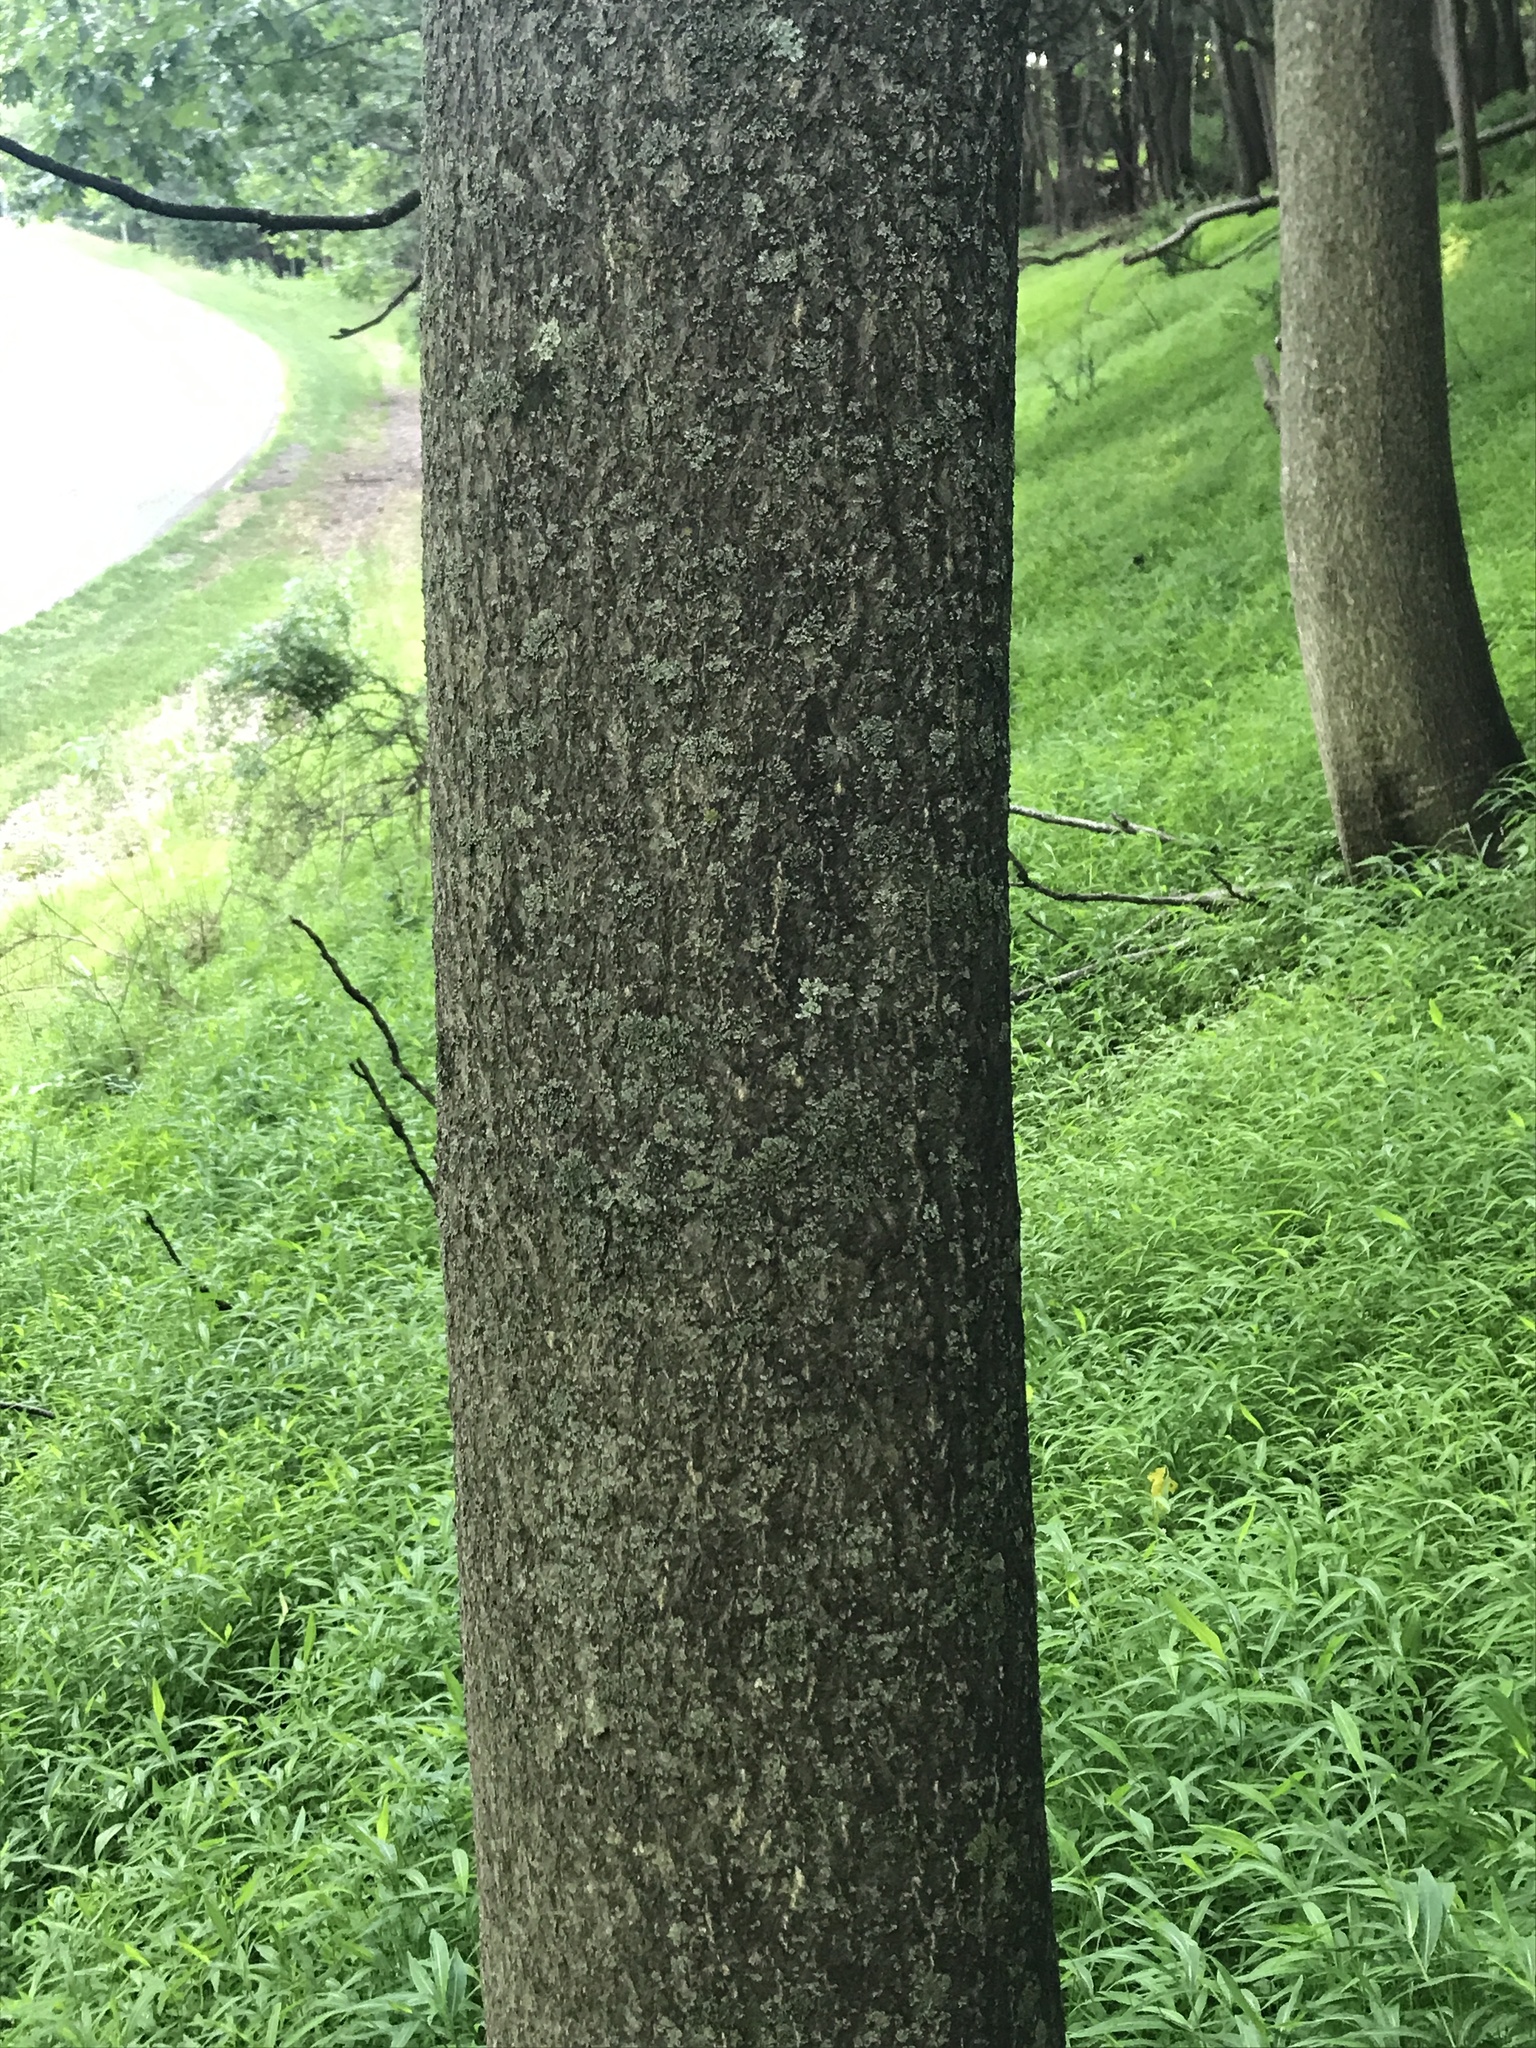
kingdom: Plantae
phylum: Tracheophyta
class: Magnoliopsida
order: Sapindales
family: Simaroubaceae
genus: Ailanthus
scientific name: Ailanthus altissima
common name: Tree-of-heaven
